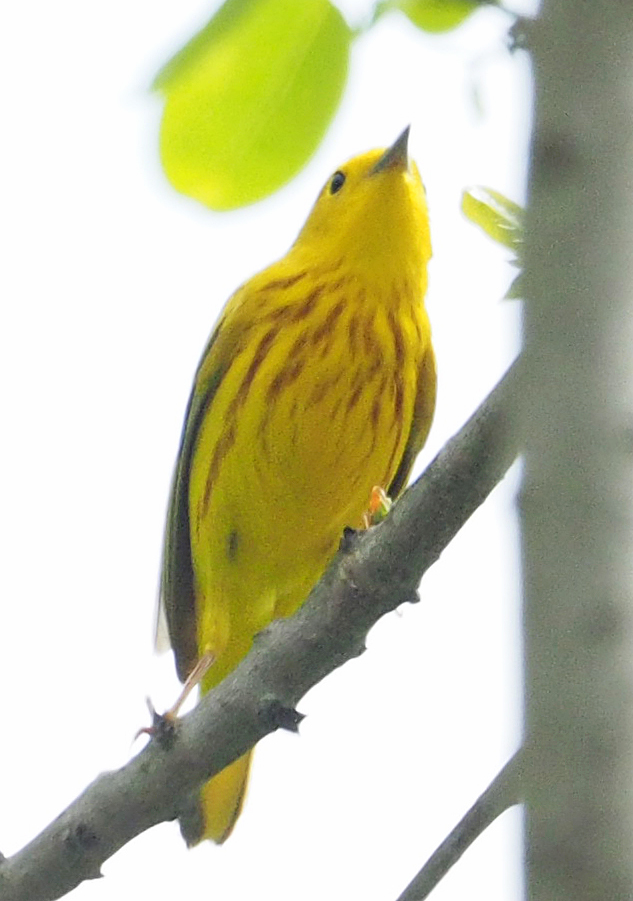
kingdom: Animalia
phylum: Chordata
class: Aves
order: Passeriformes
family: Parulidae
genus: Setophaga
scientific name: Setophaga petechia
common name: Yellow warbler
